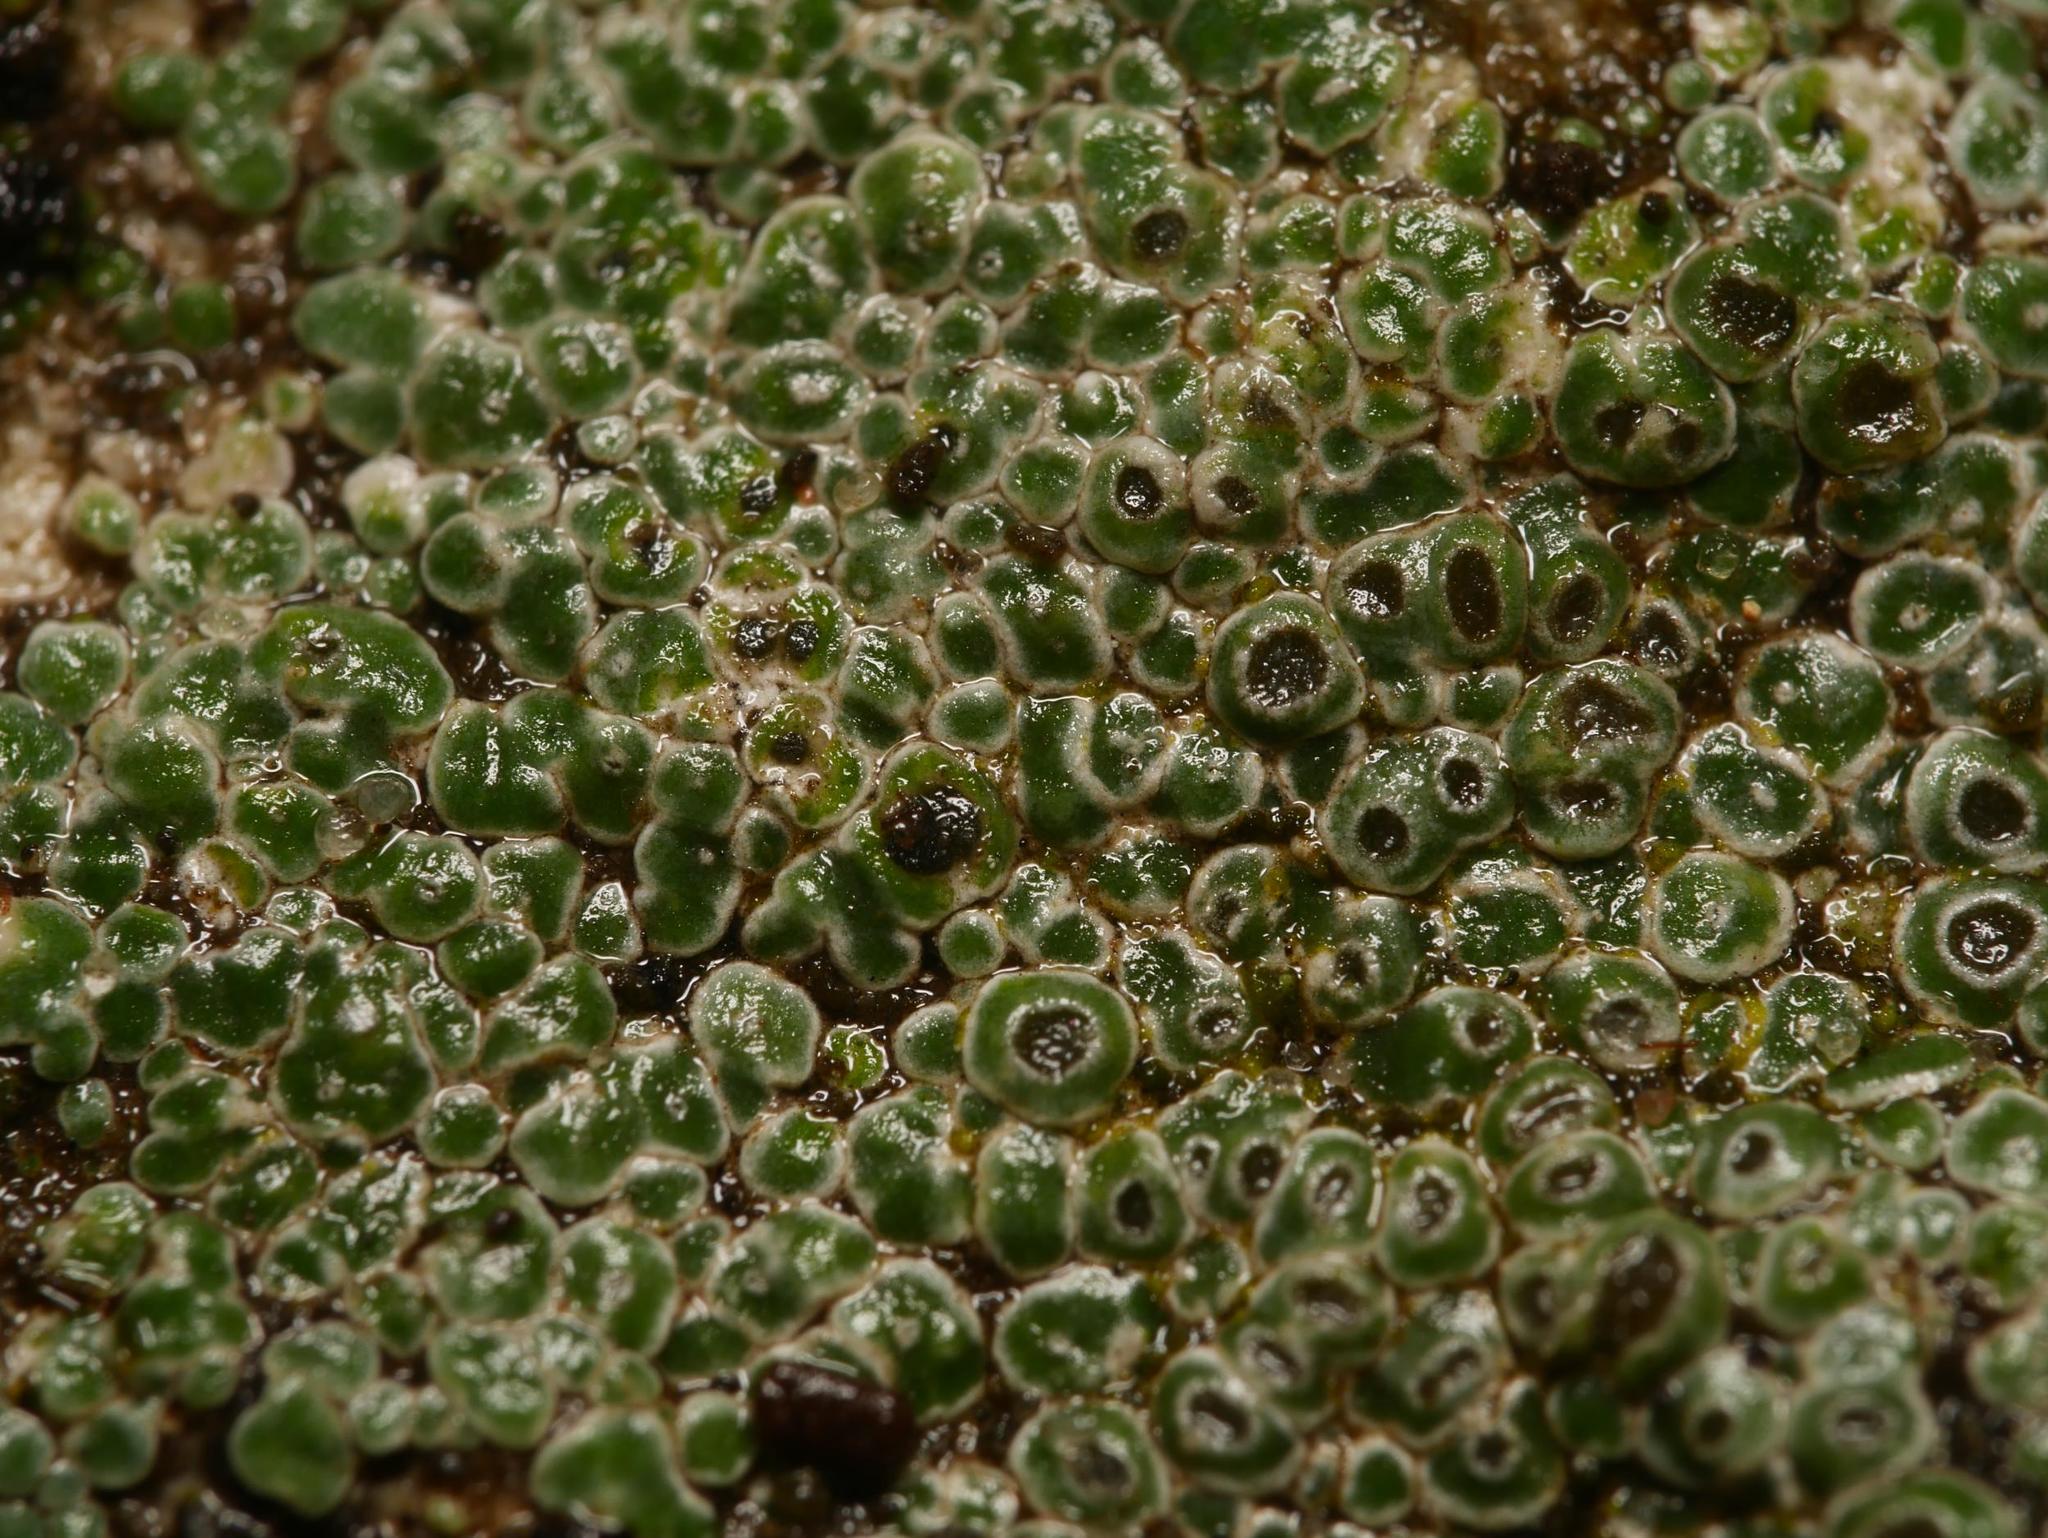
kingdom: Fungi
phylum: Ascomycota
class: Lecanoromycetes
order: Pertusariales
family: Megasporaceae
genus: Circinaria
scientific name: Circinaria contorta
